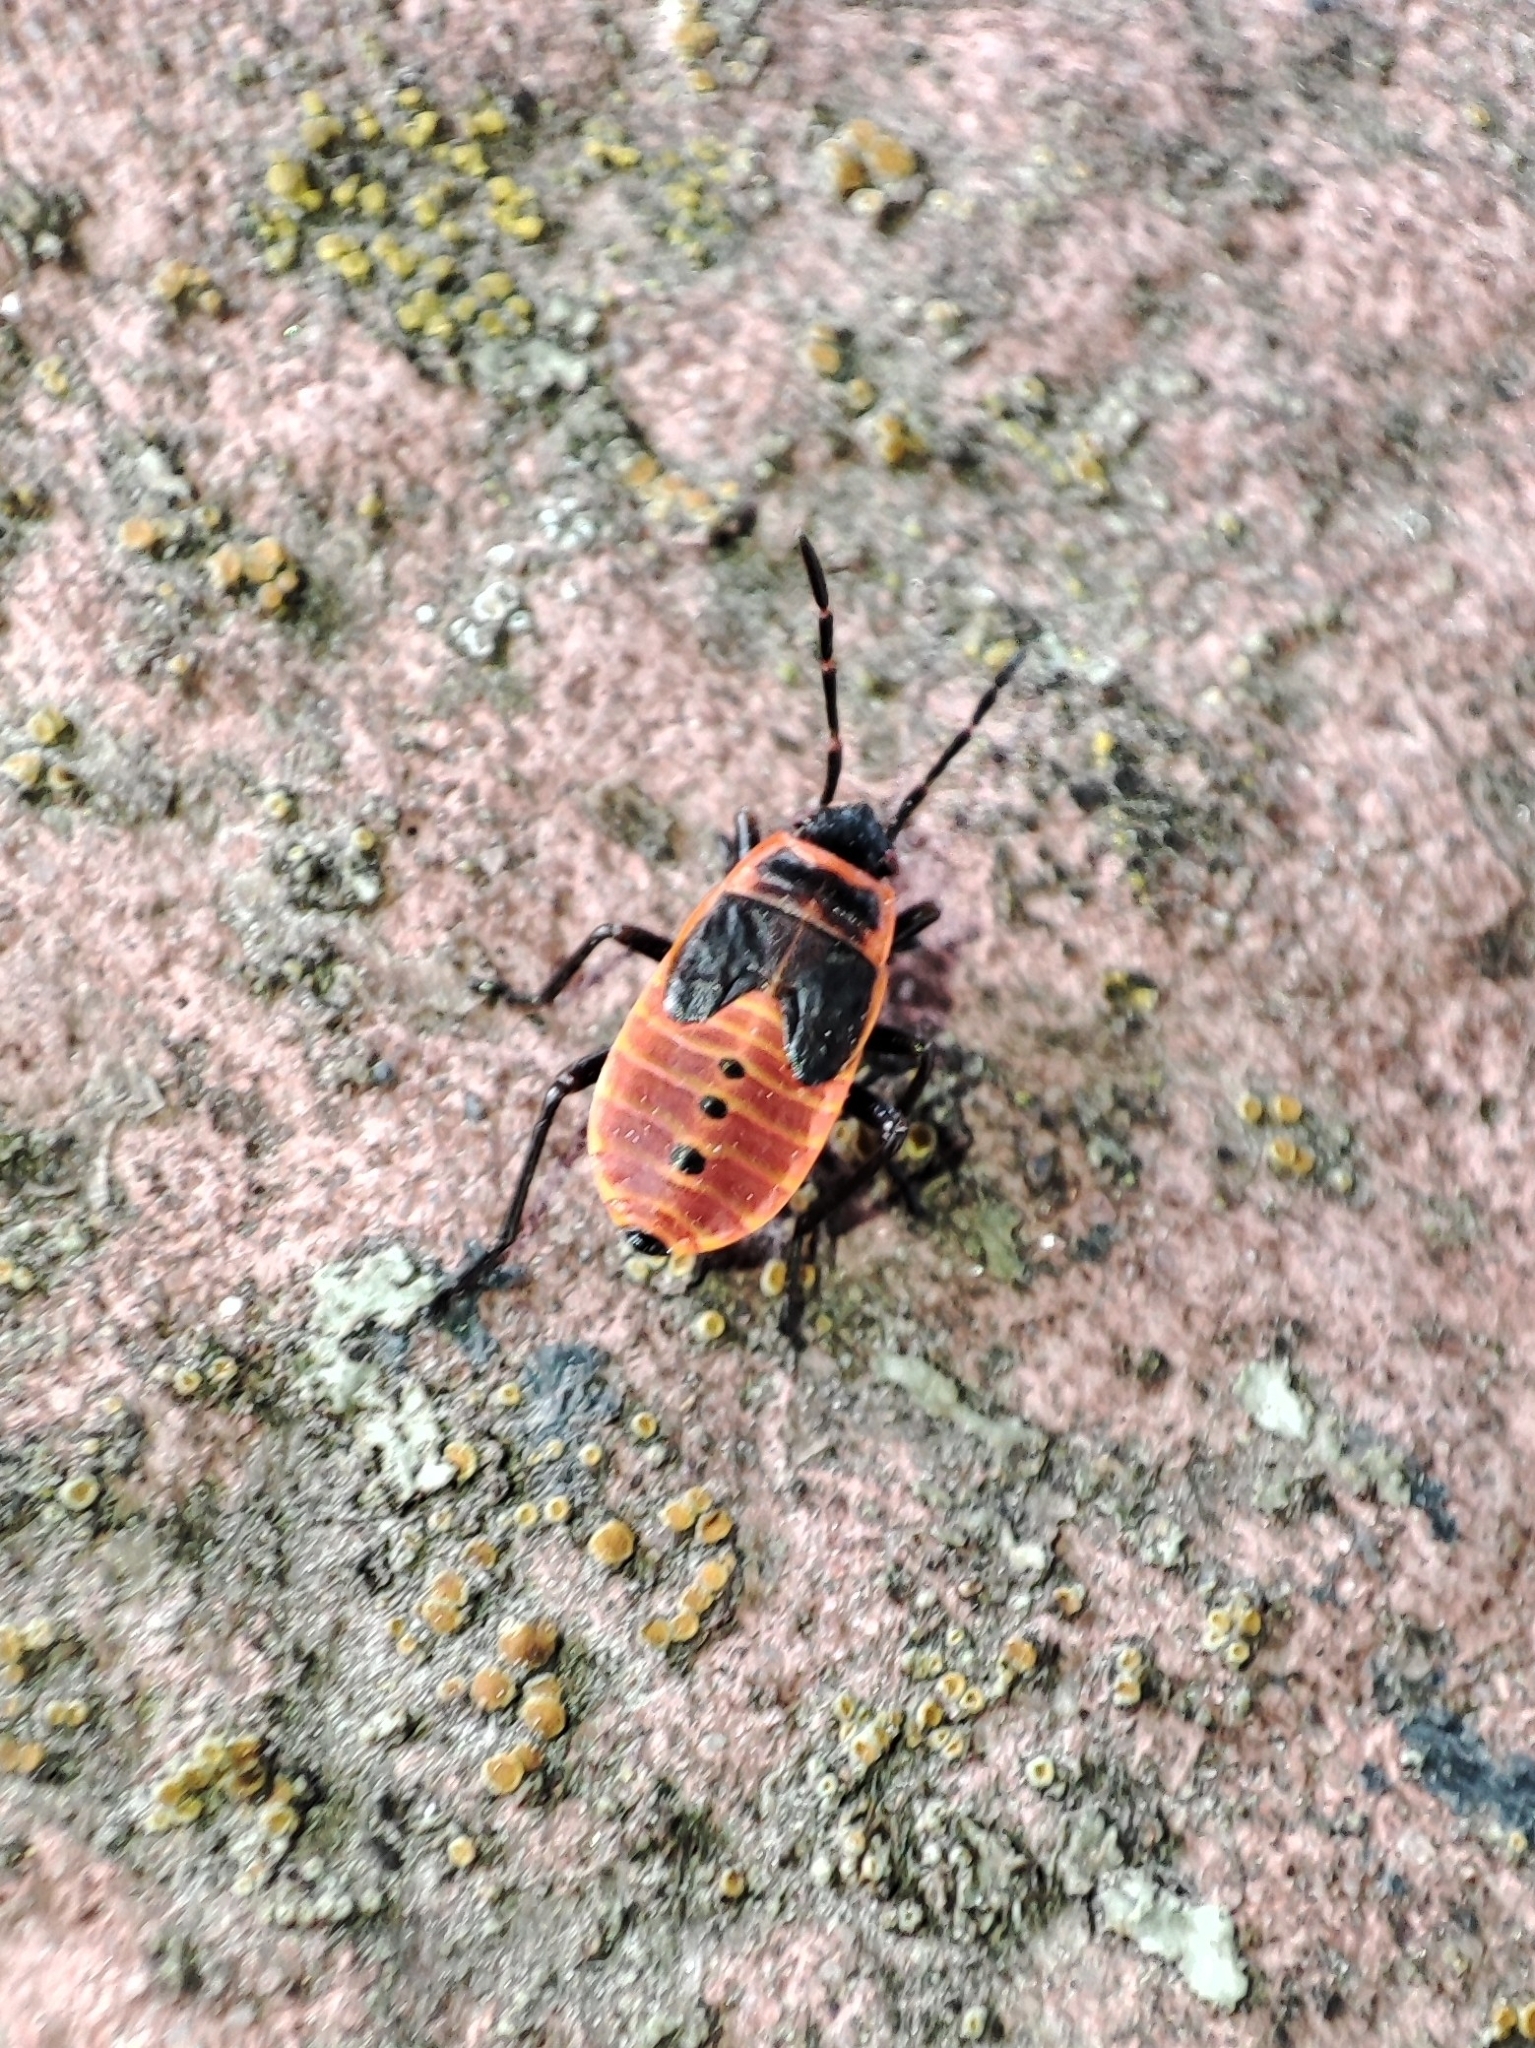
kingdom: Animalia
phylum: Arthropoda
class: Insecta
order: Hemiptera
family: Pyrrhocoridae
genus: Pyrrhocoris
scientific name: Pyrrhocoris apterus
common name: Firebug
